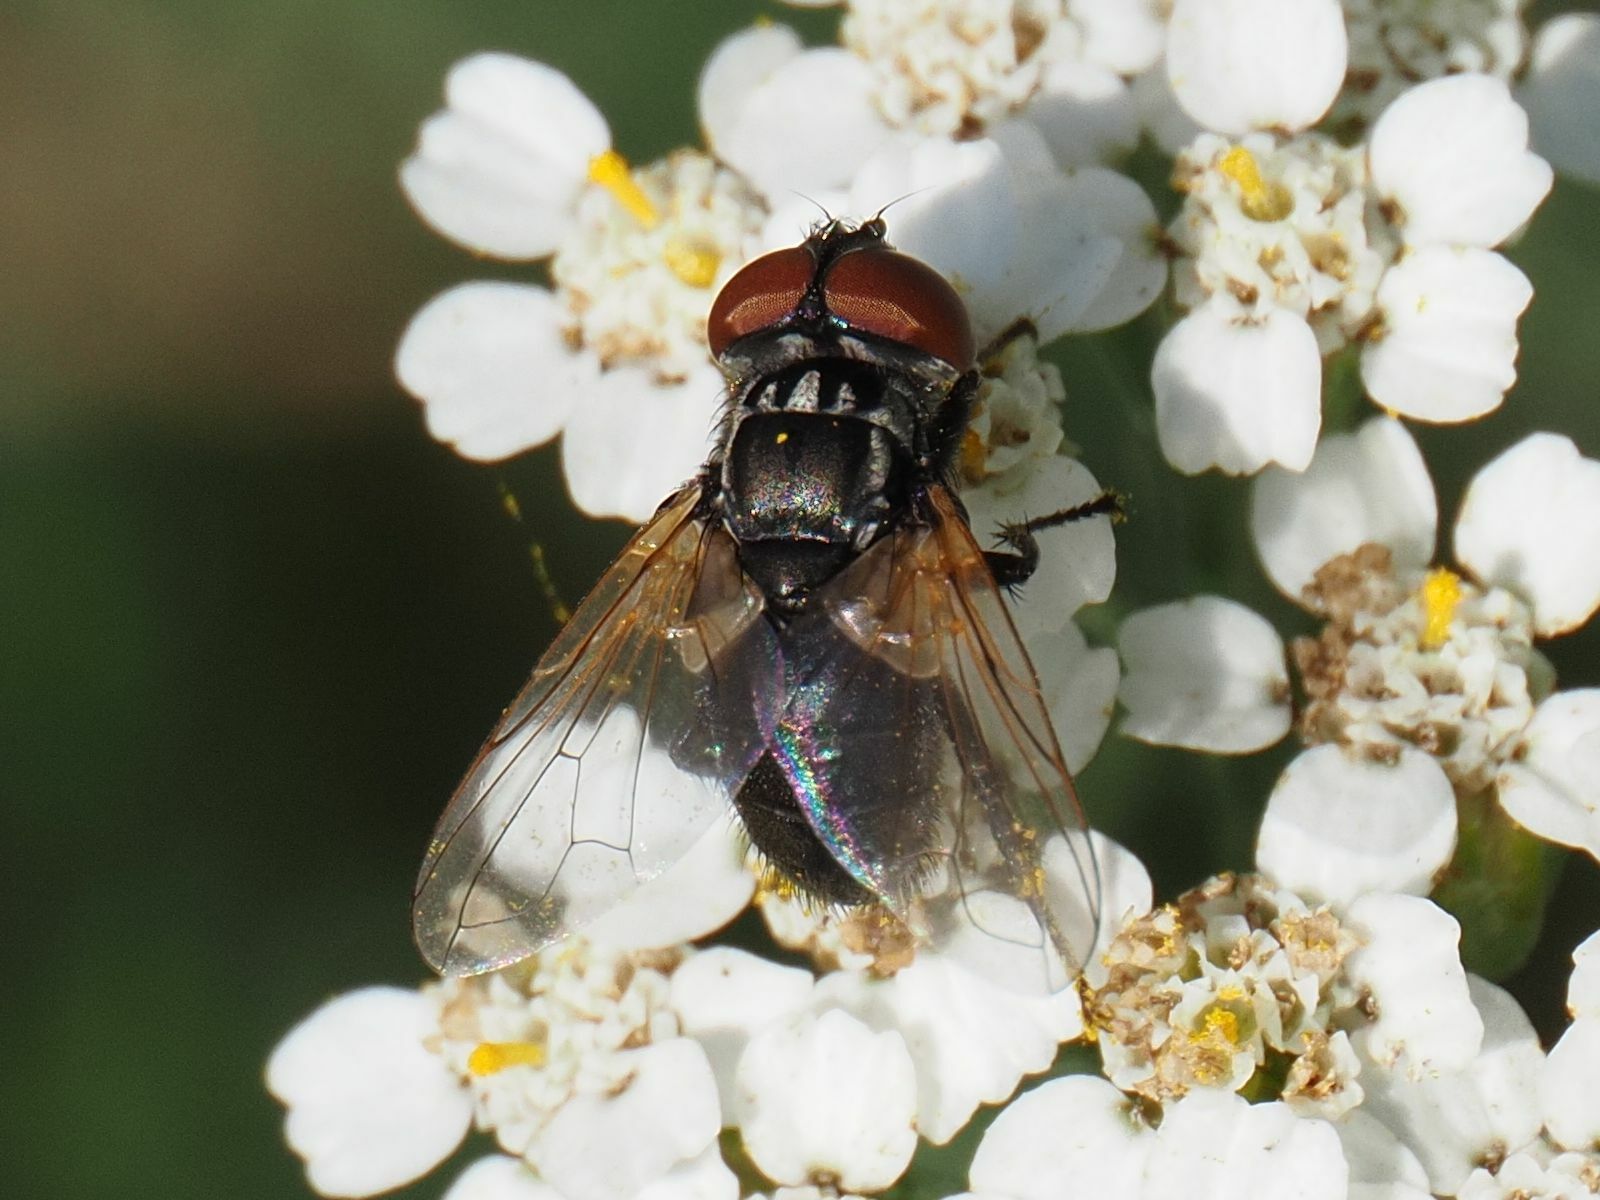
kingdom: Animalia
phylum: Arthropoda
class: Insecta
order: Diptera
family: Tachinidae
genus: Phasia
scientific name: Phasia obesa
